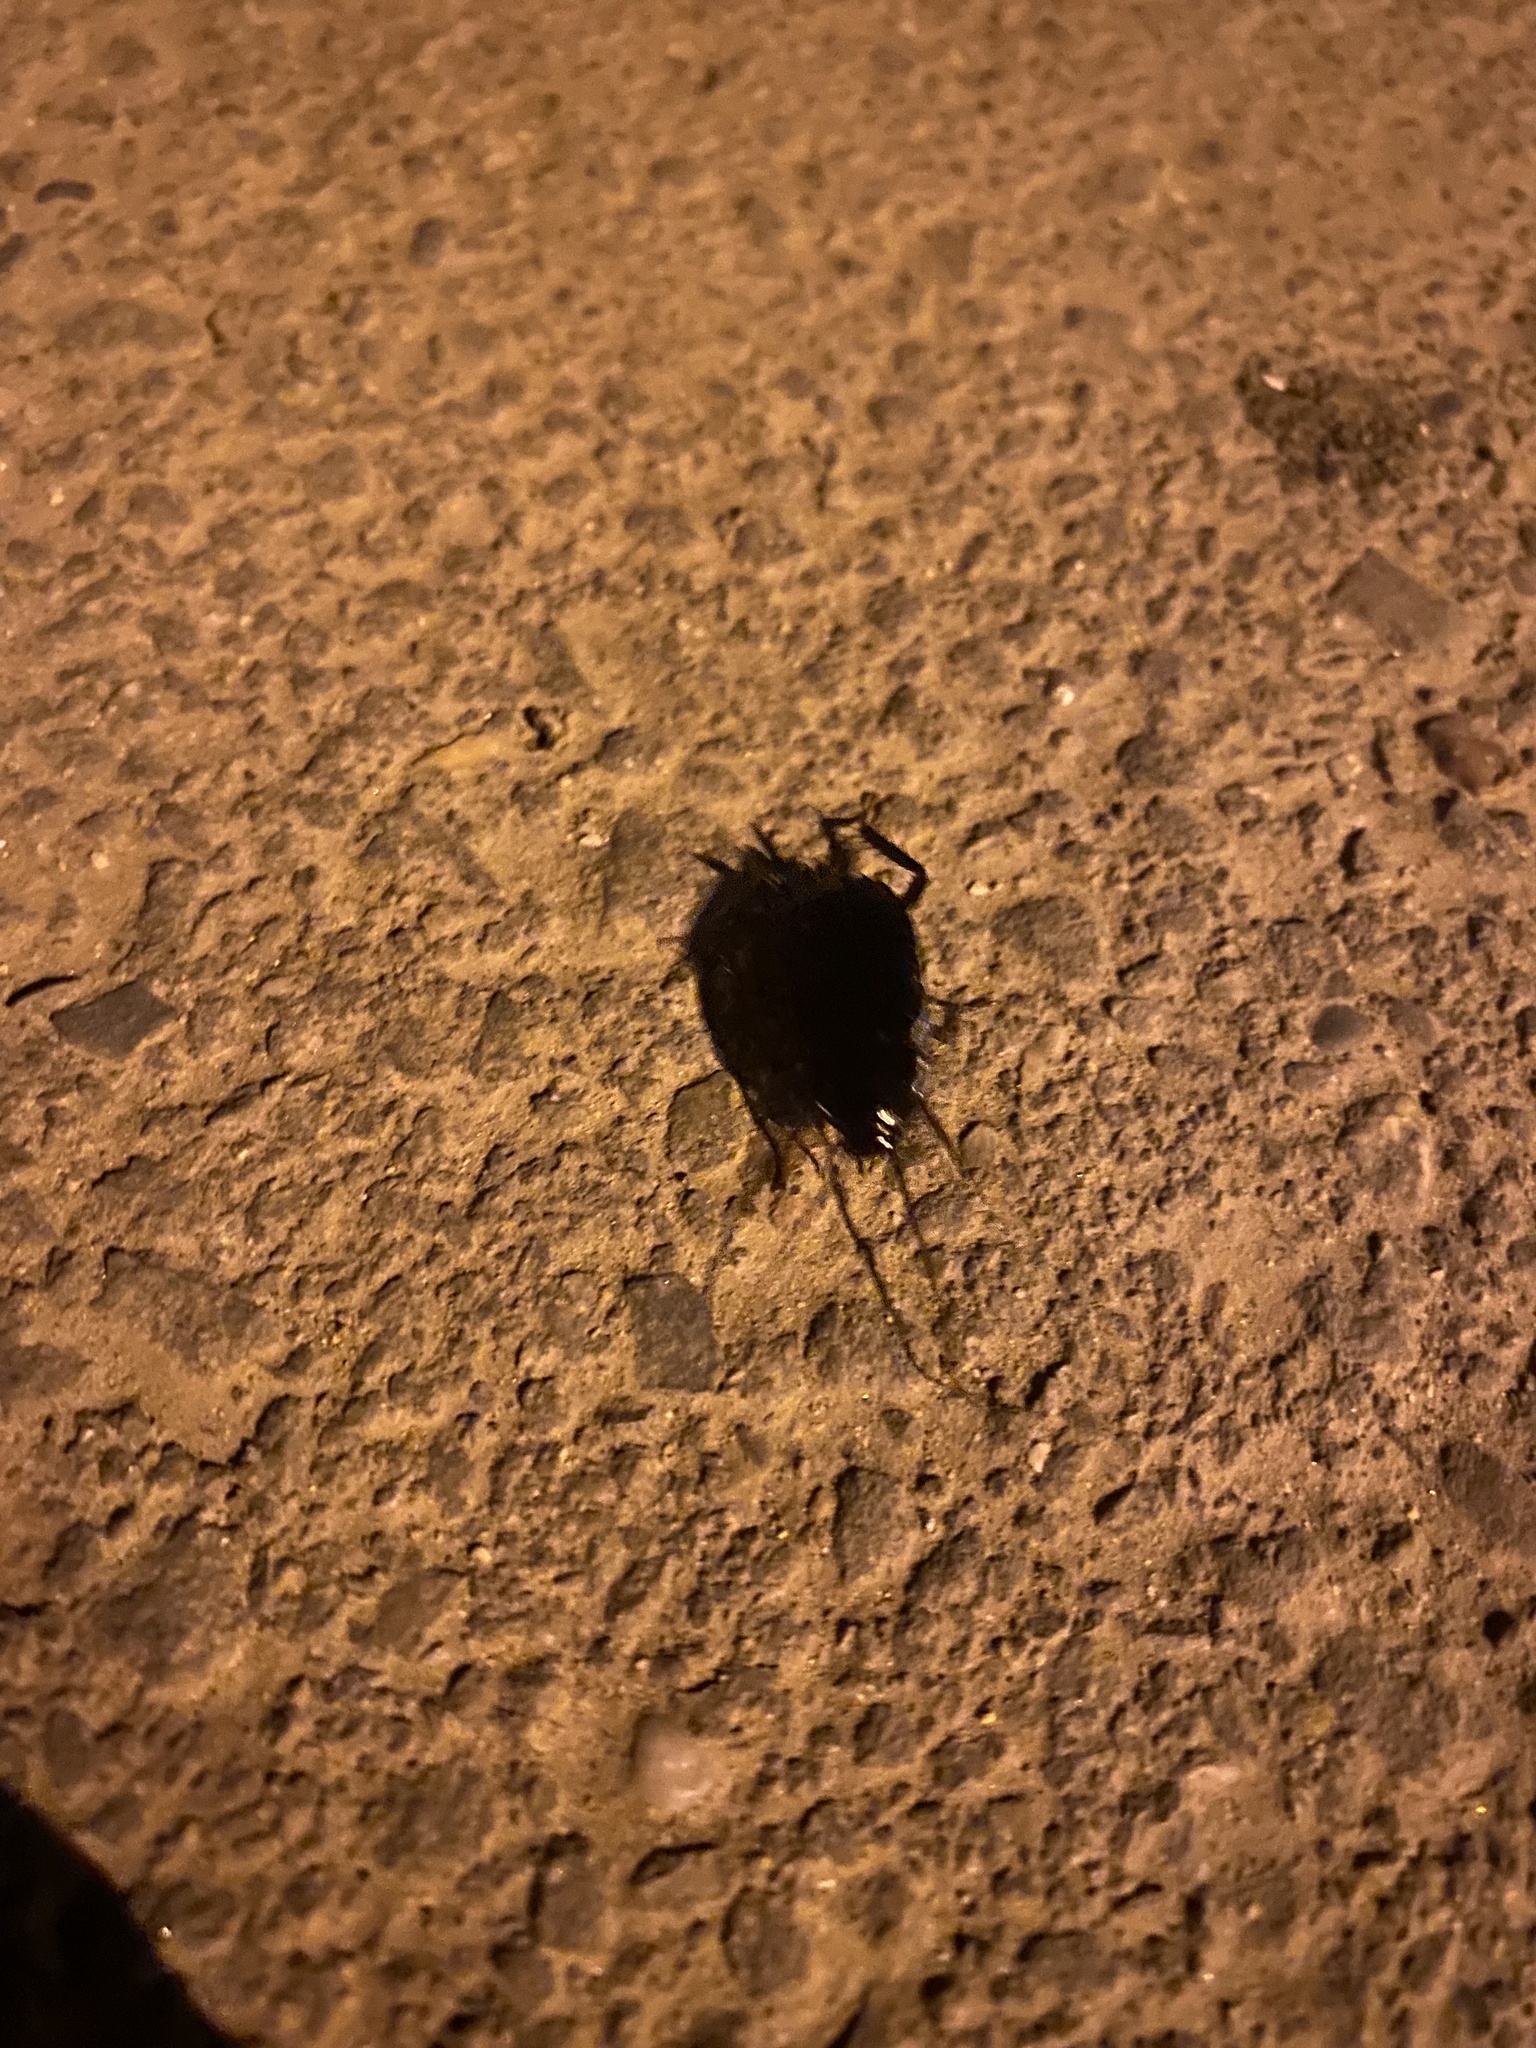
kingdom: Animalia
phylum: Arthropoda
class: Insecta
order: Blattodea
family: Blattidae
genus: Blatta
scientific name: Blatta orientalis
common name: Oriental cockroach
